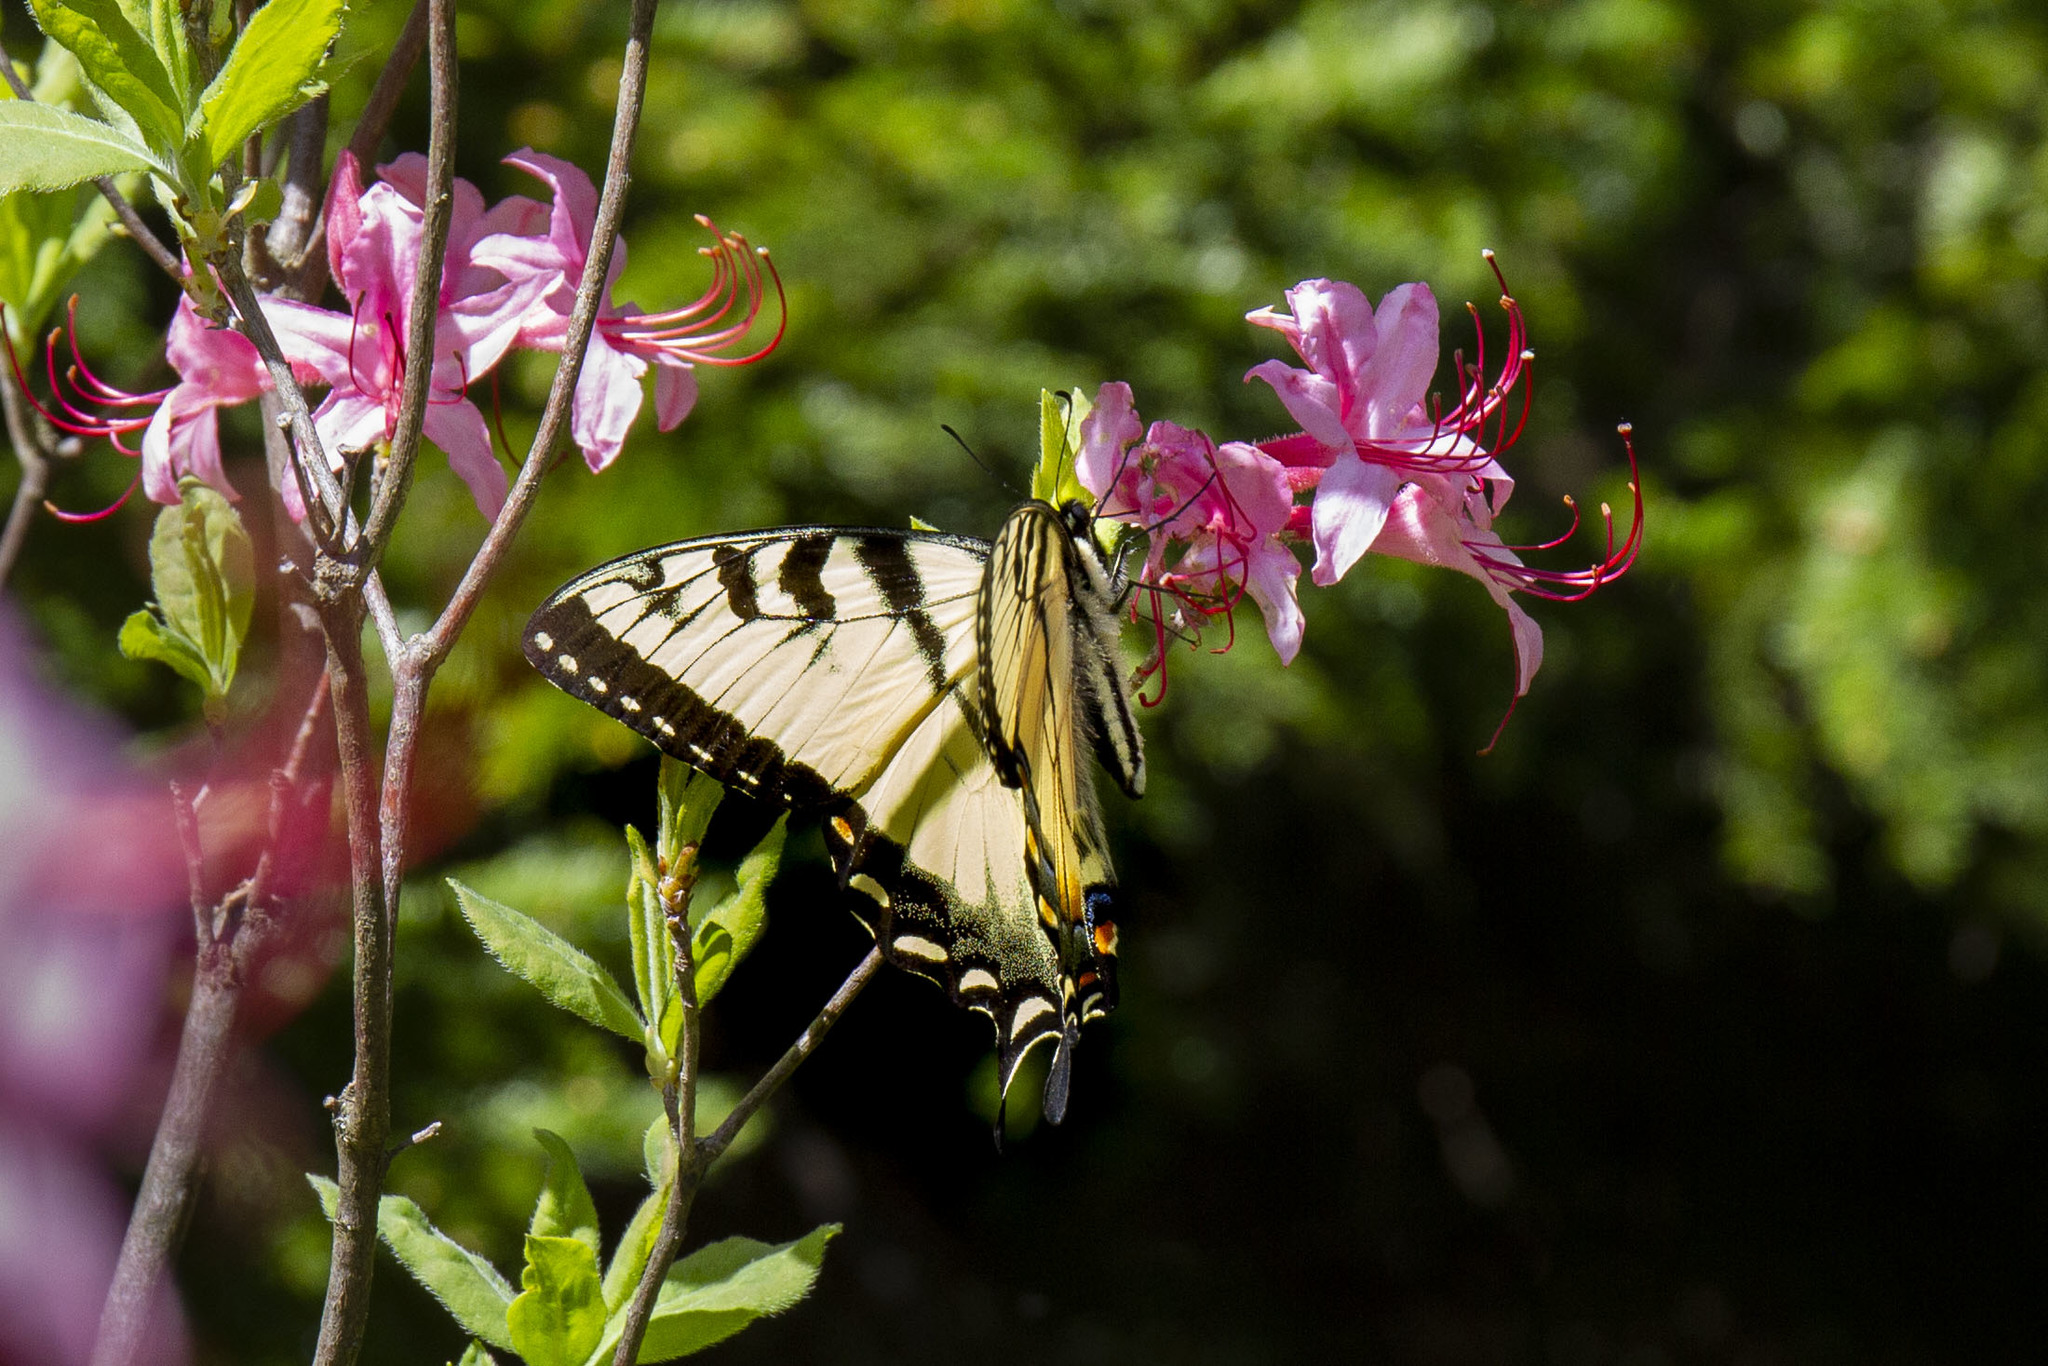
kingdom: Animalia
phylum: Arthropoda
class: Insecta
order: Lepidoptera
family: Papilionidae
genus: Papilio
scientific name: Papilio appalachiensis
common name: Appalachian tiger swallowtail
